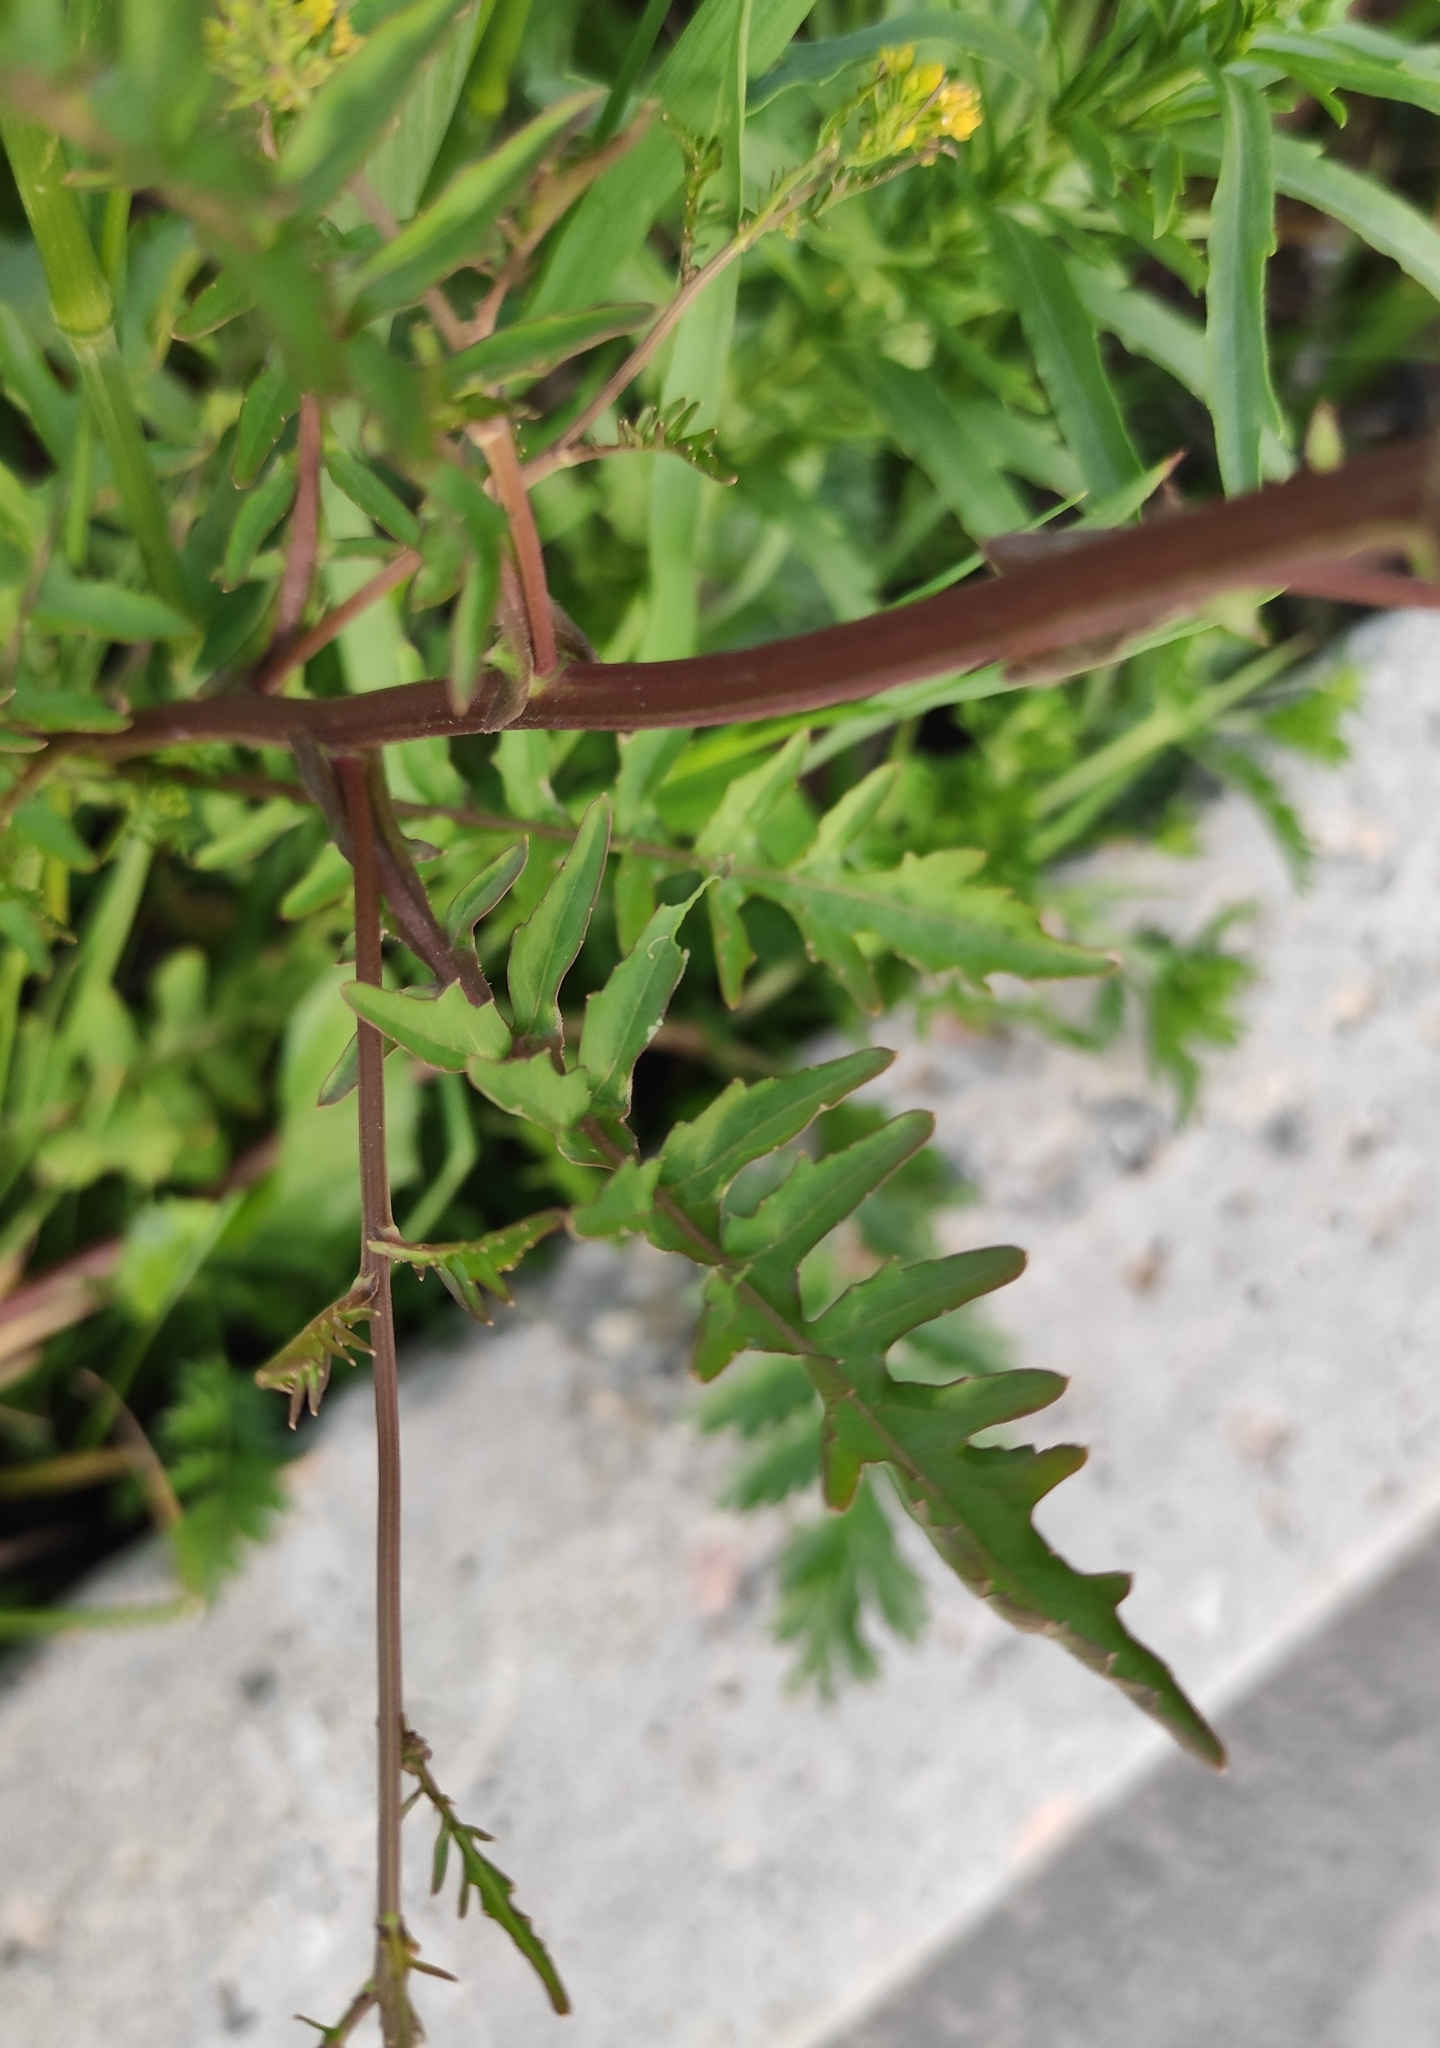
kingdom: Plantae
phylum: Tracheophyta
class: Magnoliopsida
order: Brassicales
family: Brassicaceae
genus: Rorippa
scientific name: Rorippa palustris
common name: Marsh yellow-cress
